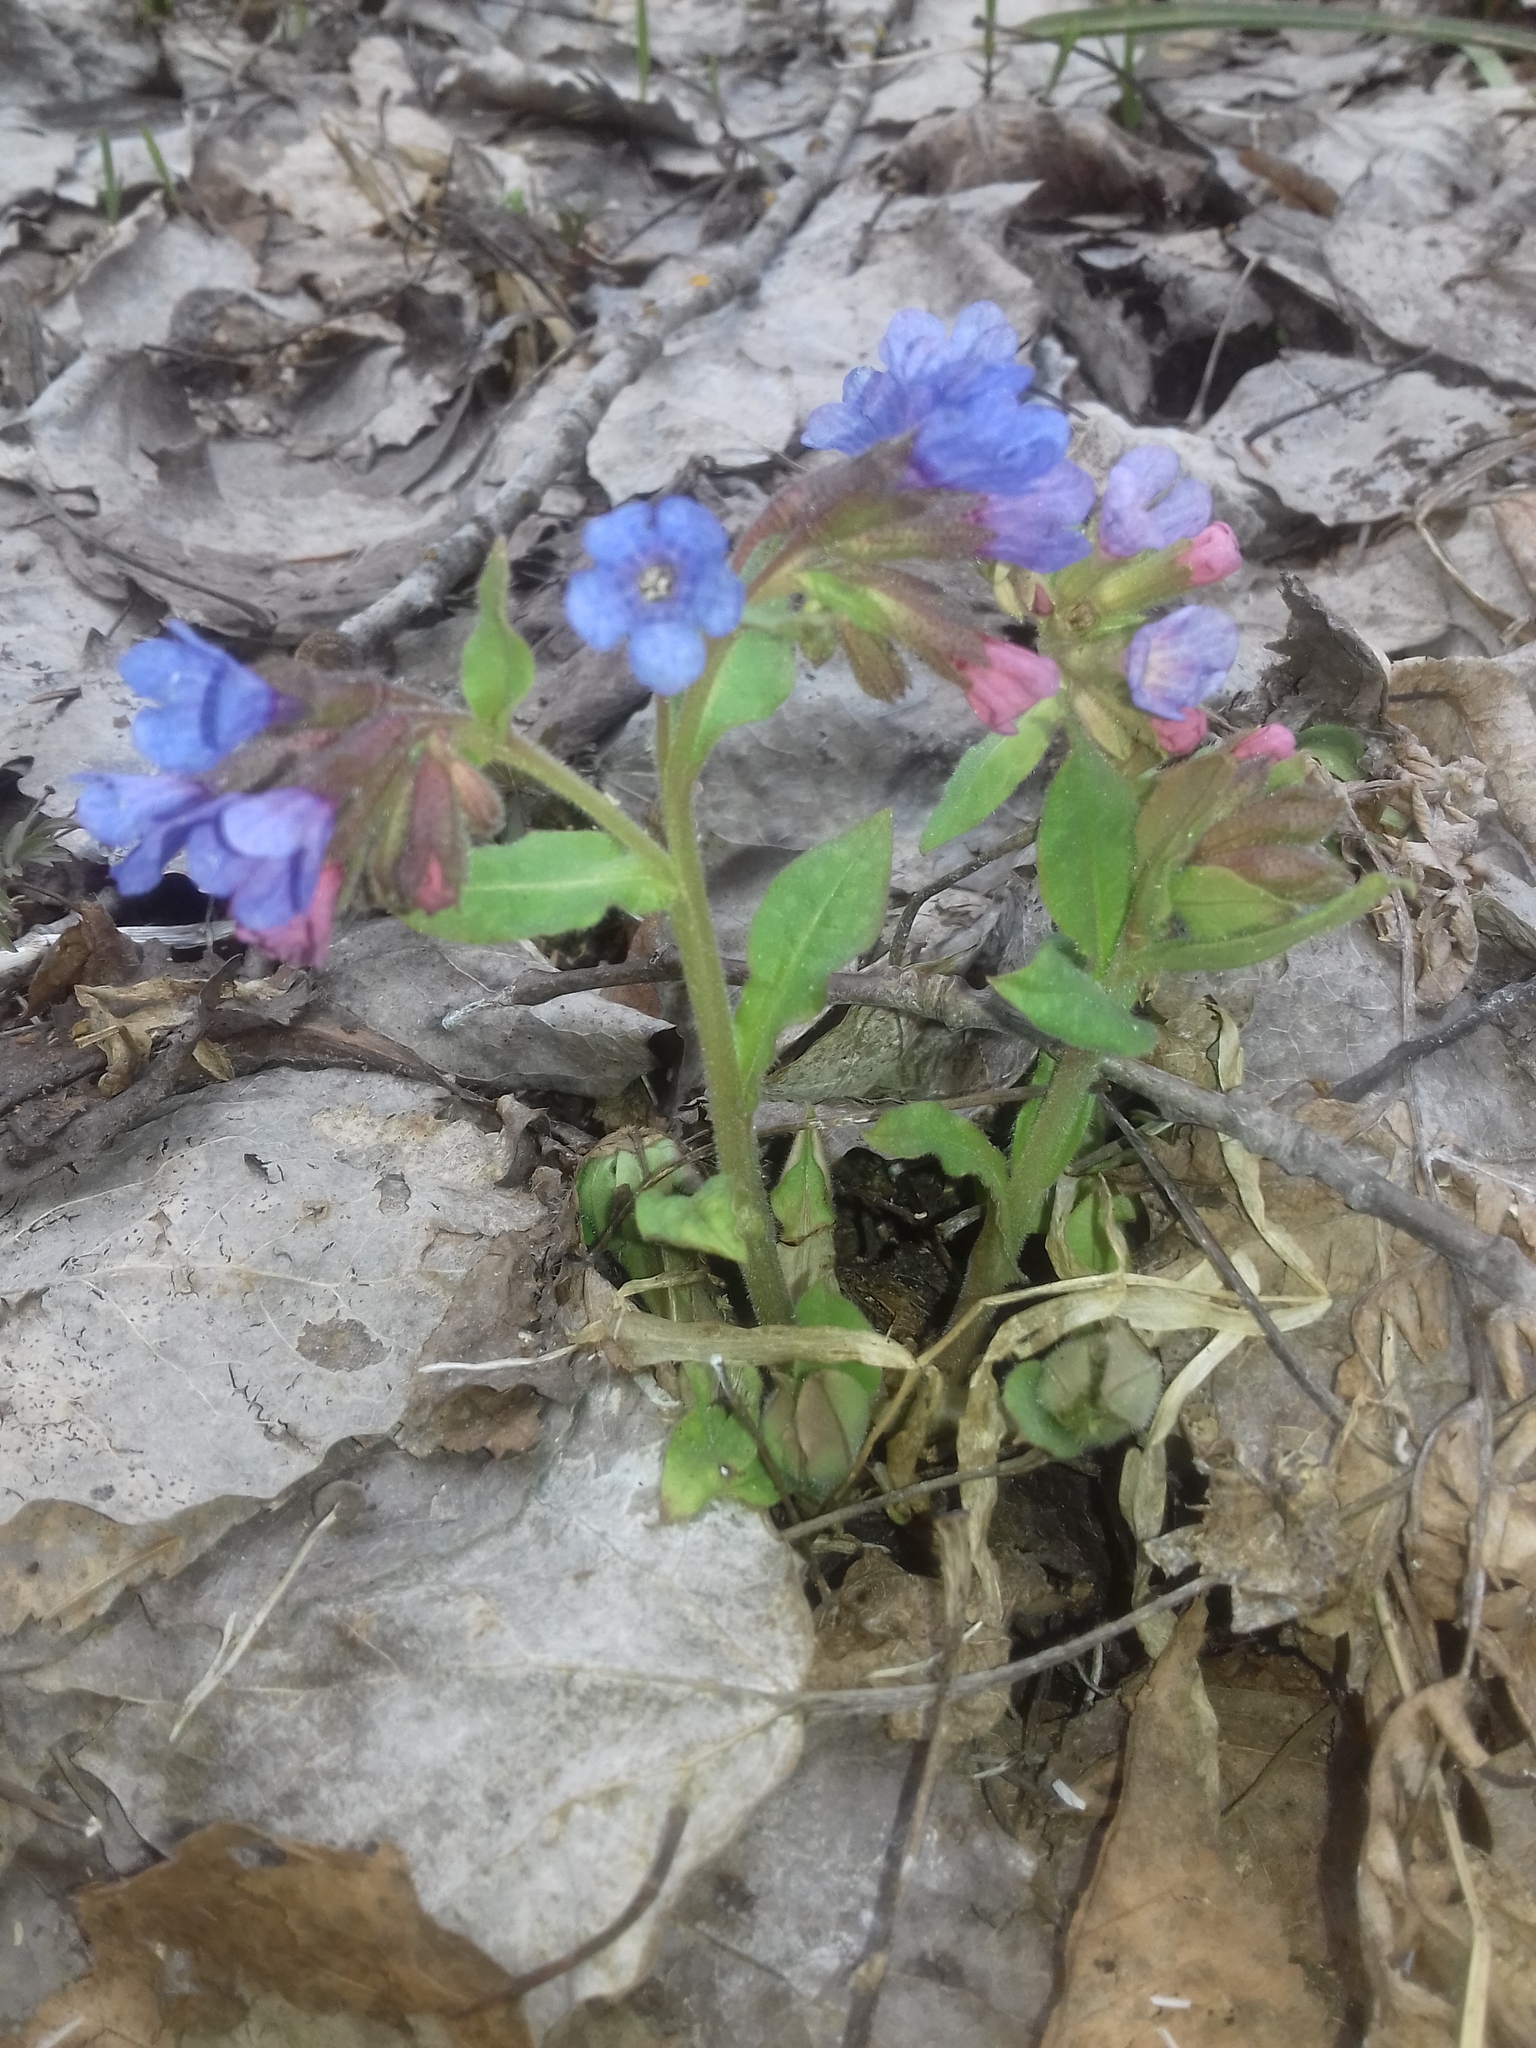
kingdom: Plantae
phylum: Tracheophyta
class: Magnoliopsida
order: Boraginales
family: Boraginaceae
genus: Pulmonaria
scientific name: Pulmonaria obscura
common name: Suffolk lungwort
